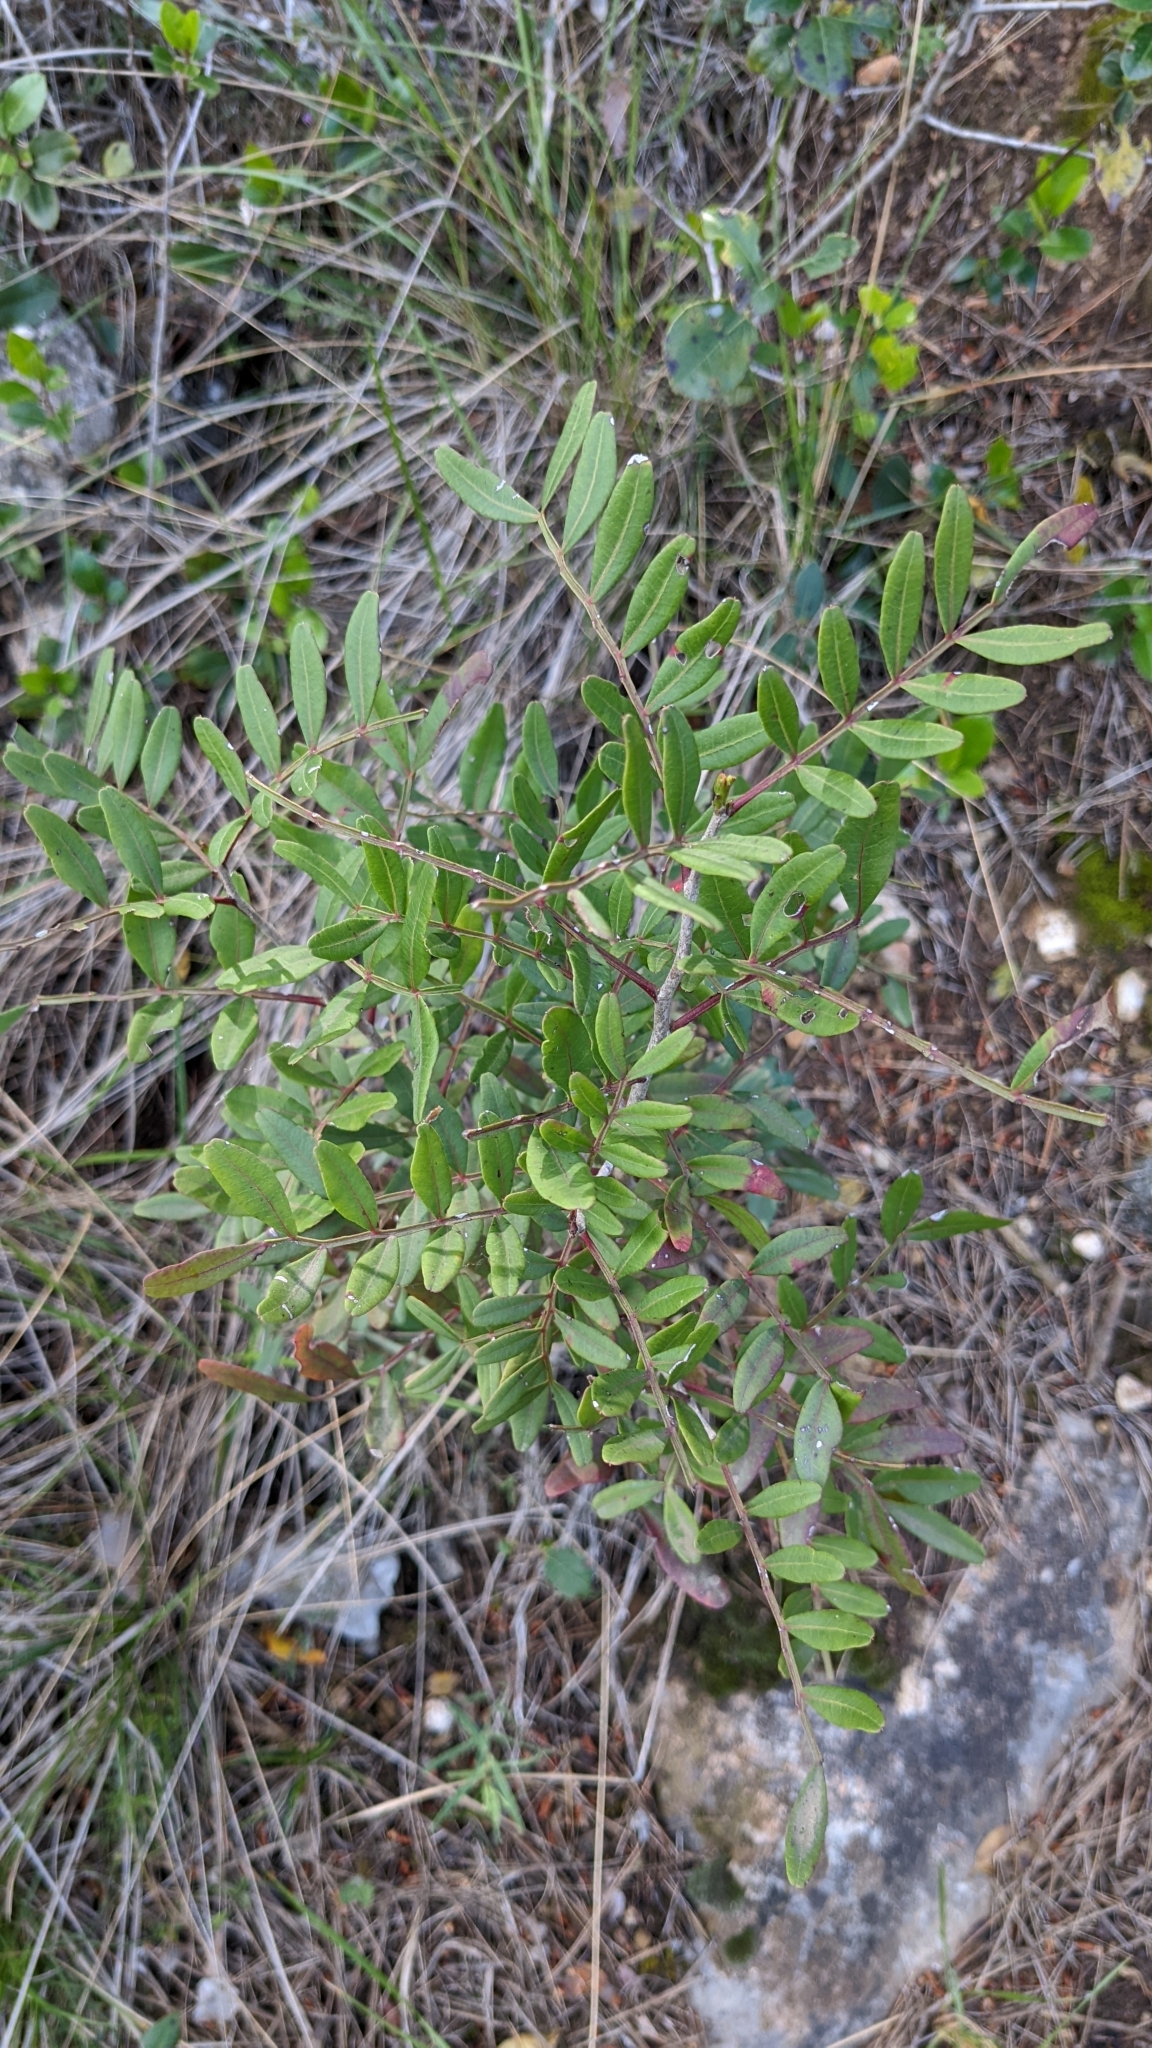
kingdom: Plantae
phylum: Tracheophyta
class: Magnoliopsida
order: Sapindales
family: Anacardiaceae
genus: Pistacia
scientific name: Pistacia lentiscus
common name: Lentisk
